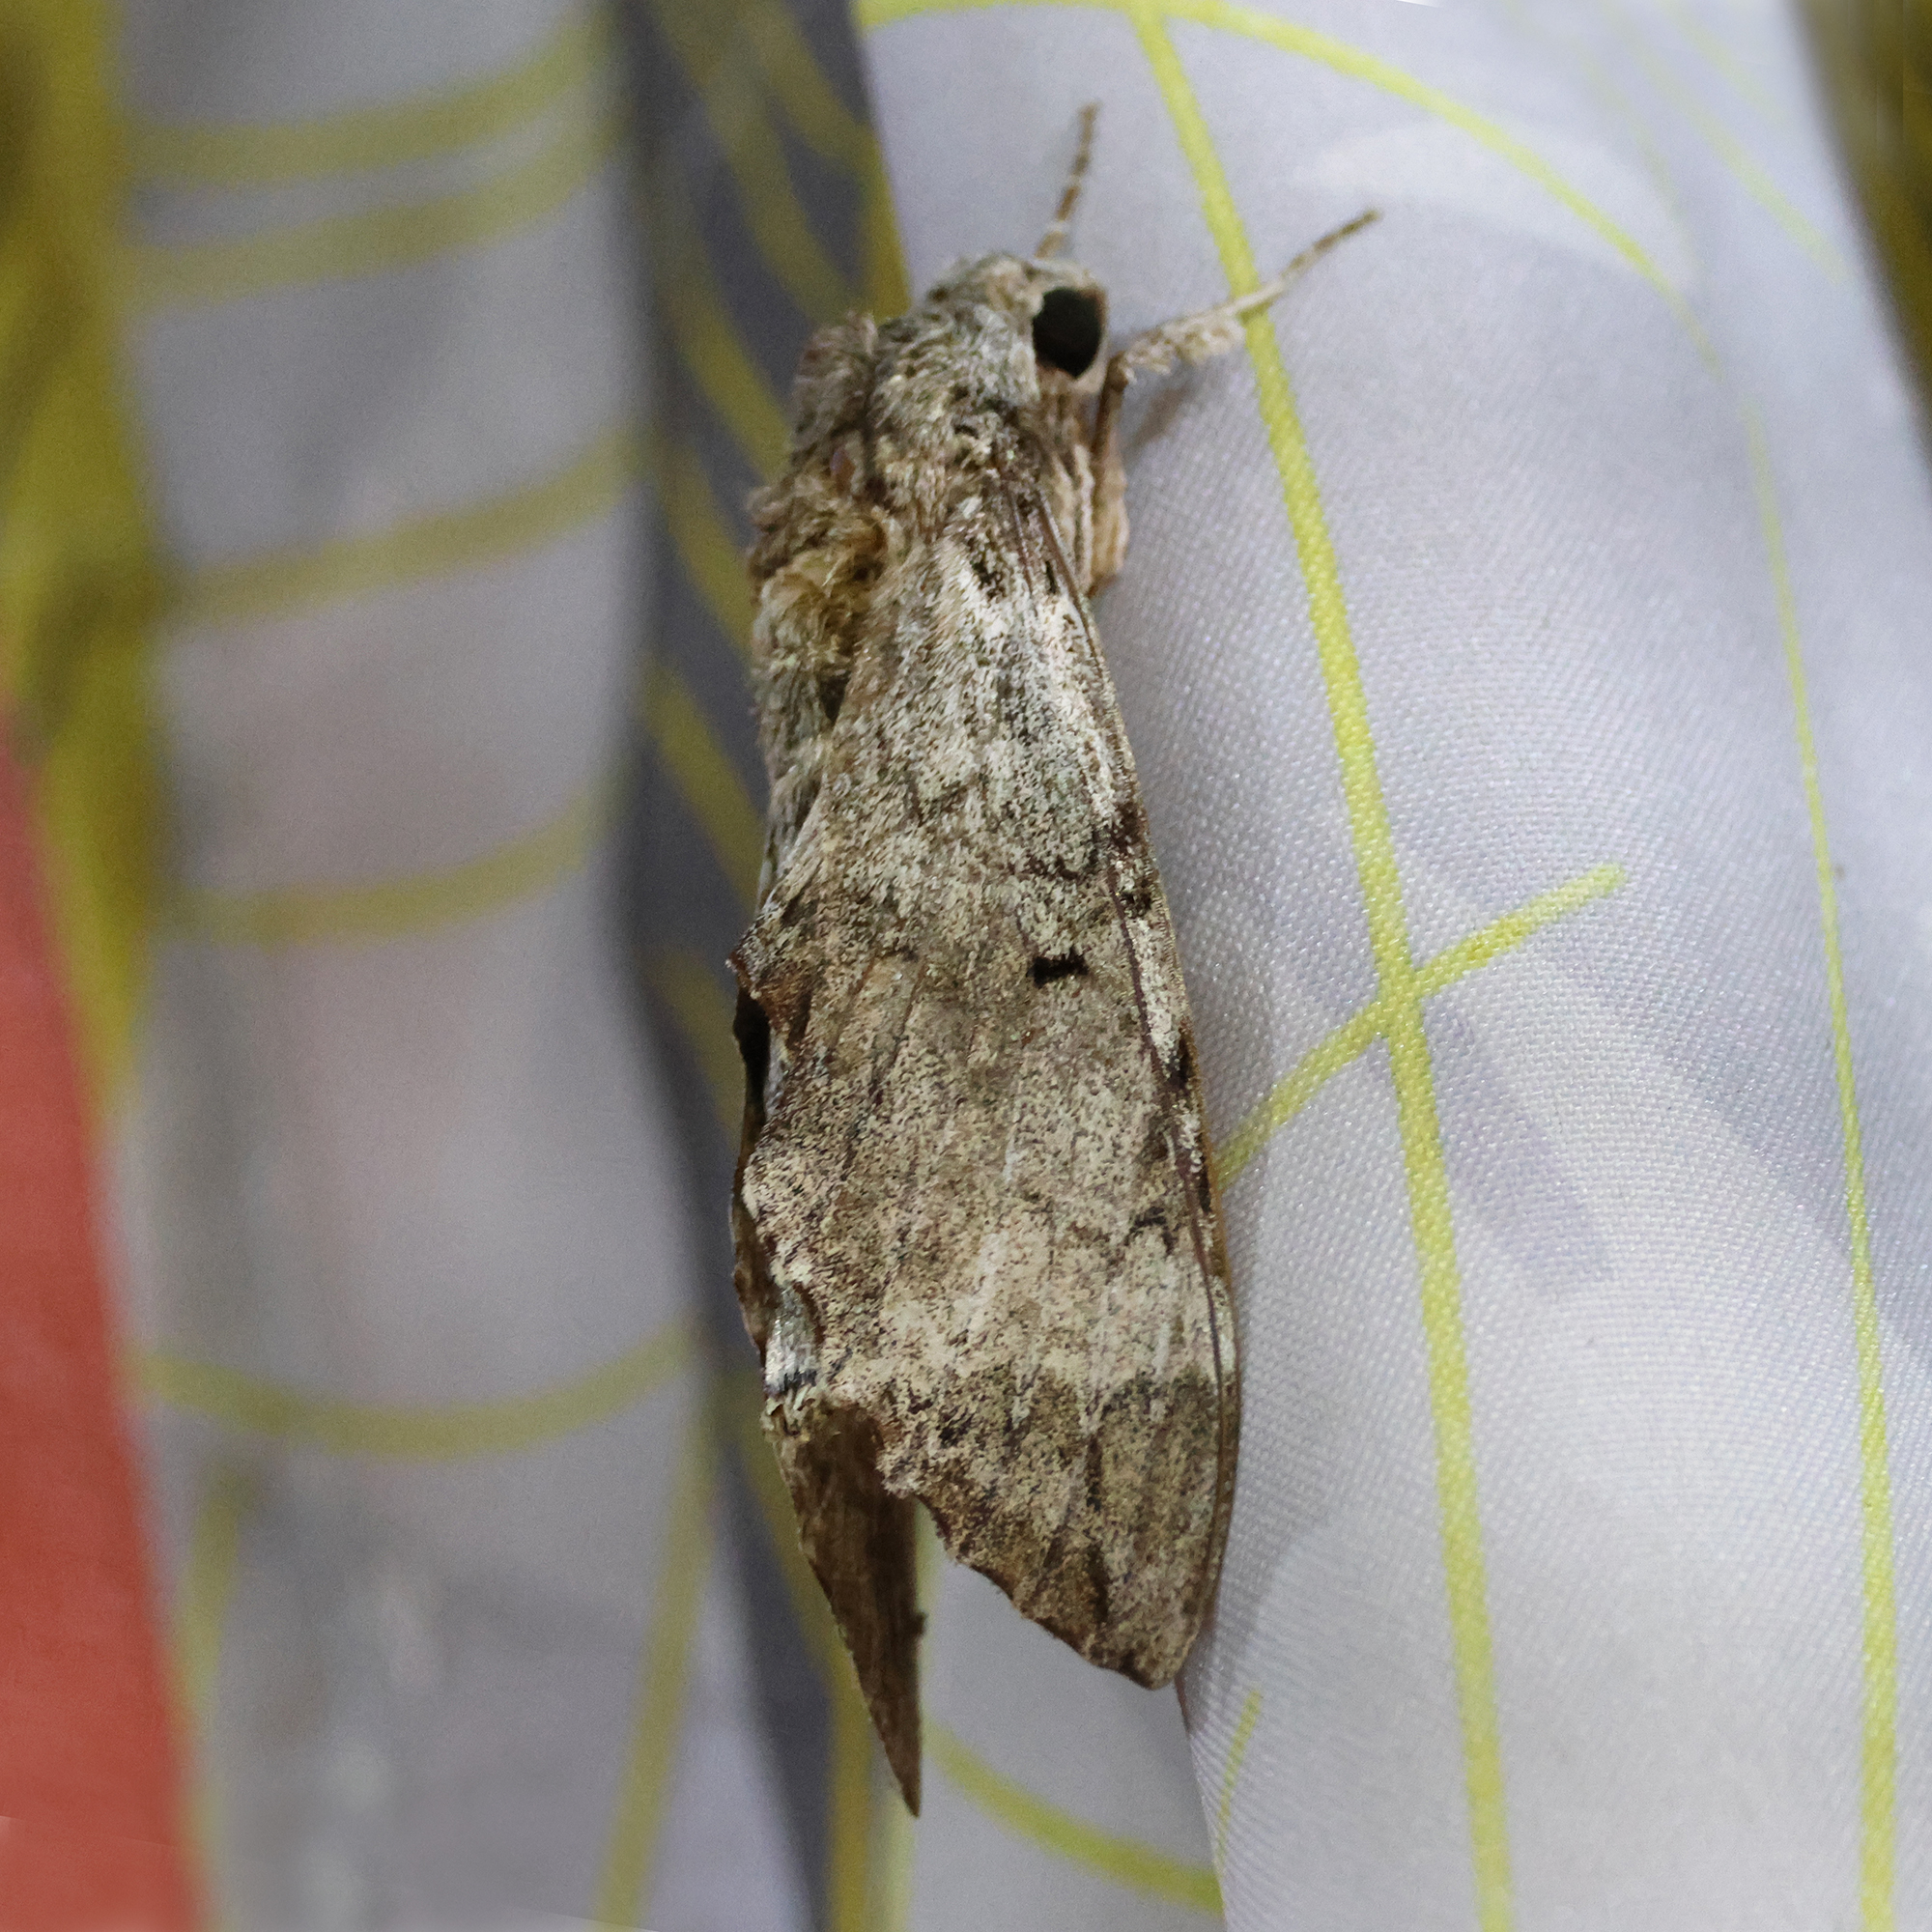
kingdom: Animalia
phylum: Arthropoda
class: Insecta
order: Lepidoptera
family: Sphingidae
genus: Pseudosphinx
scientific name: Pseudosphinx tetrio
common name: Tetrio sphinx
